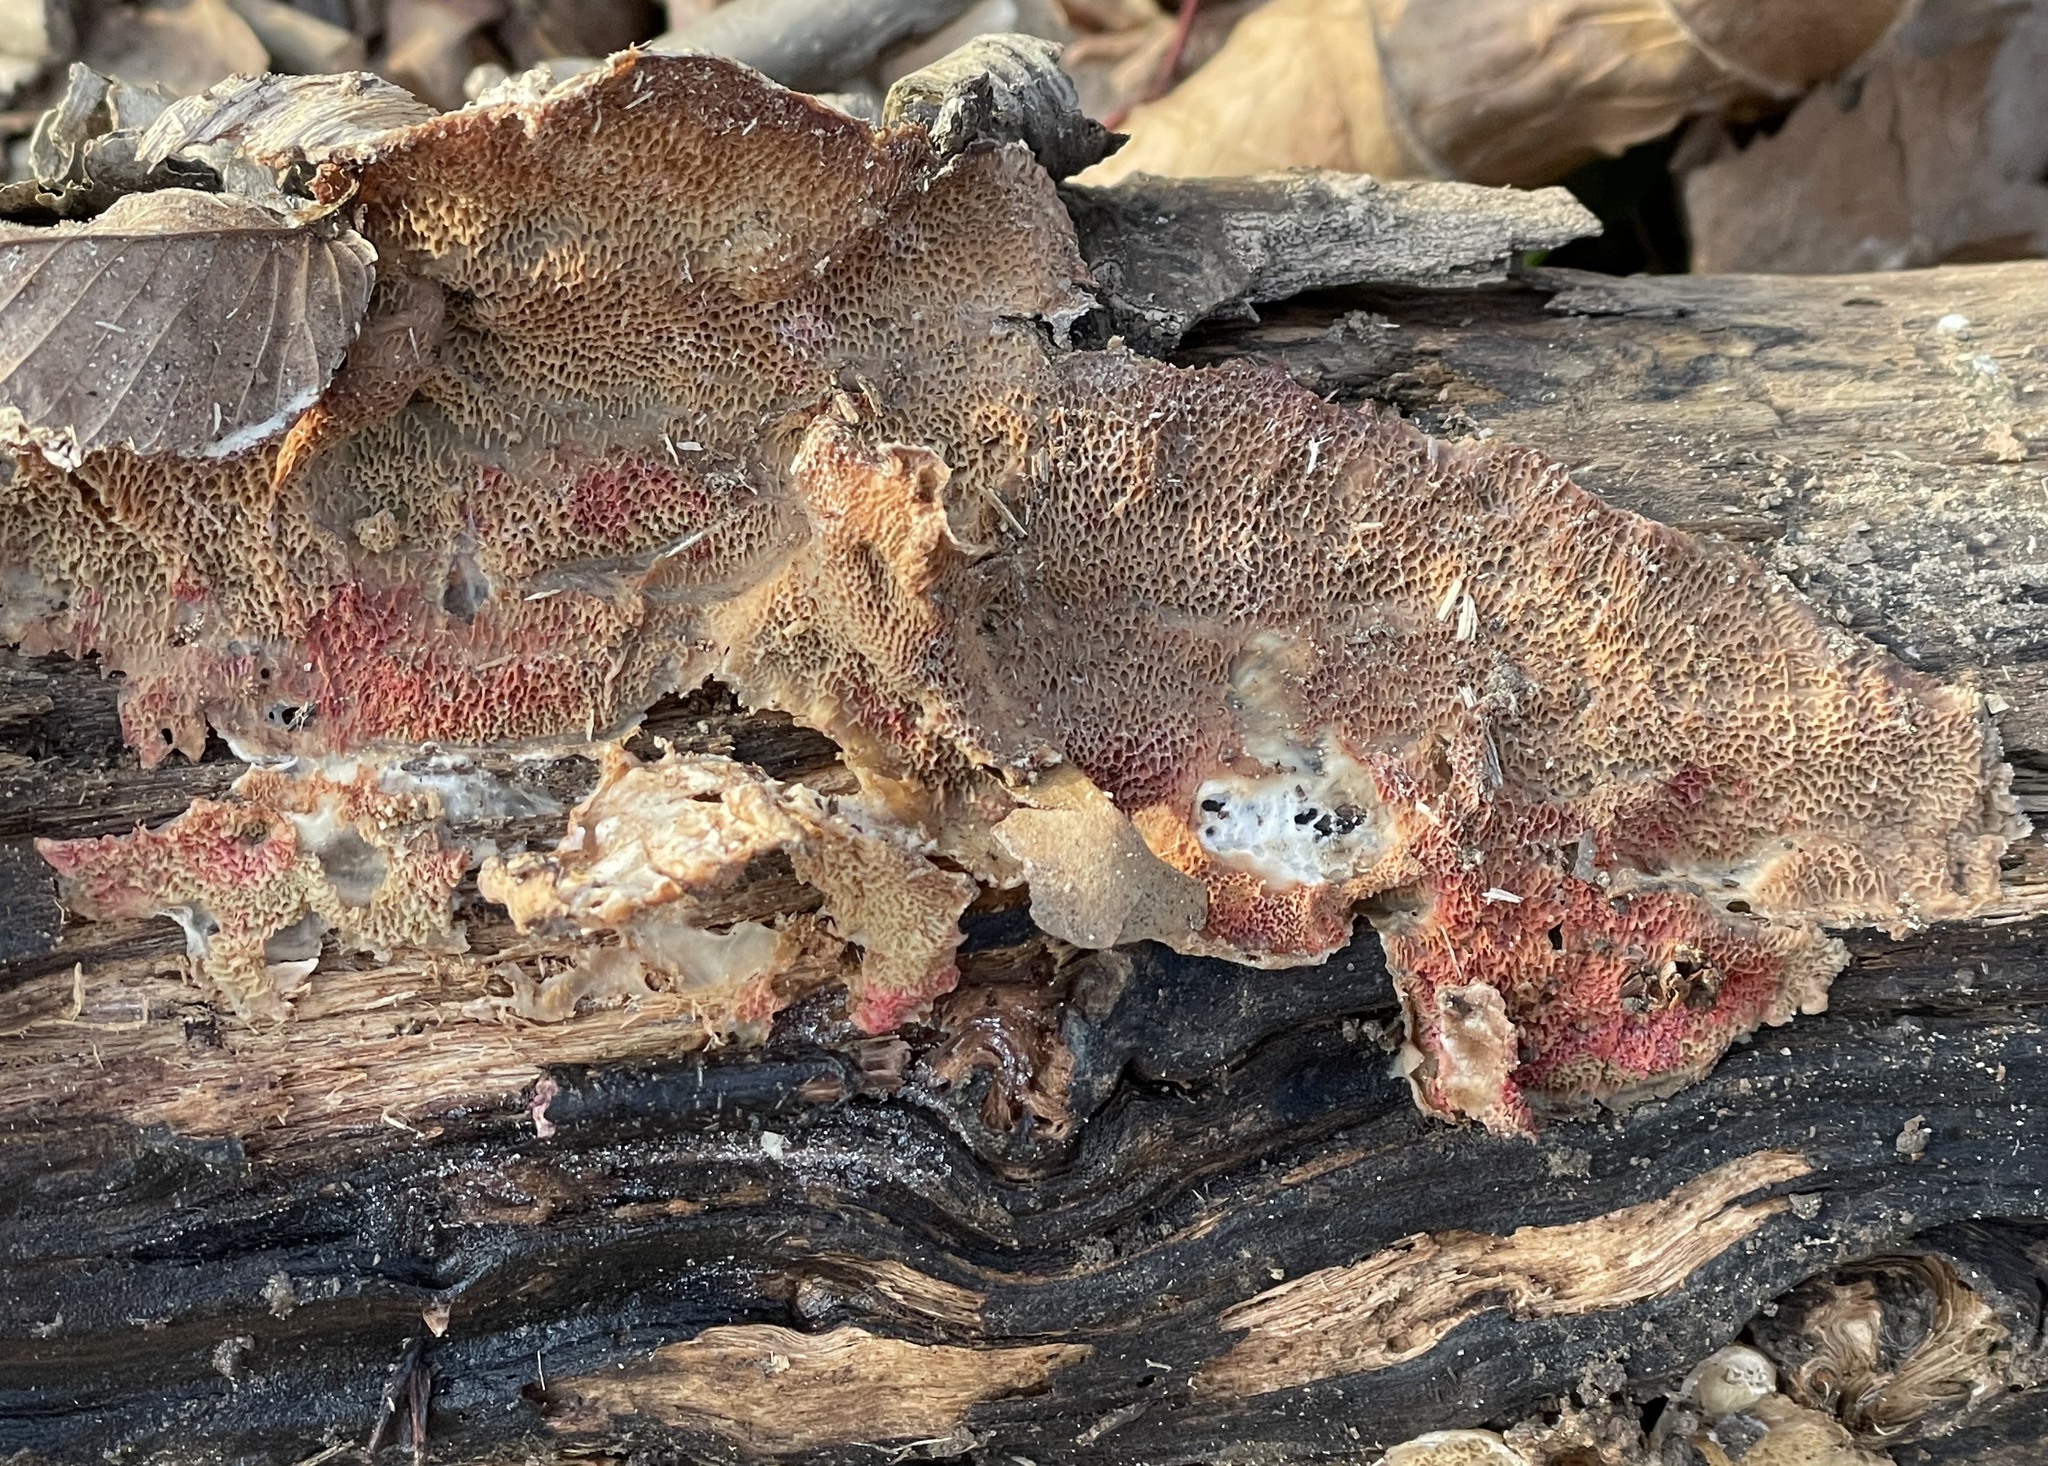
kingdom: Fungi
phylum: Basidiomycota
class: Agaricomycetes
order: Polyporales
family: Meruliaceae
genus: Phlebia
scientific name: Phlebia tremellosa
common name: Jelly rot
